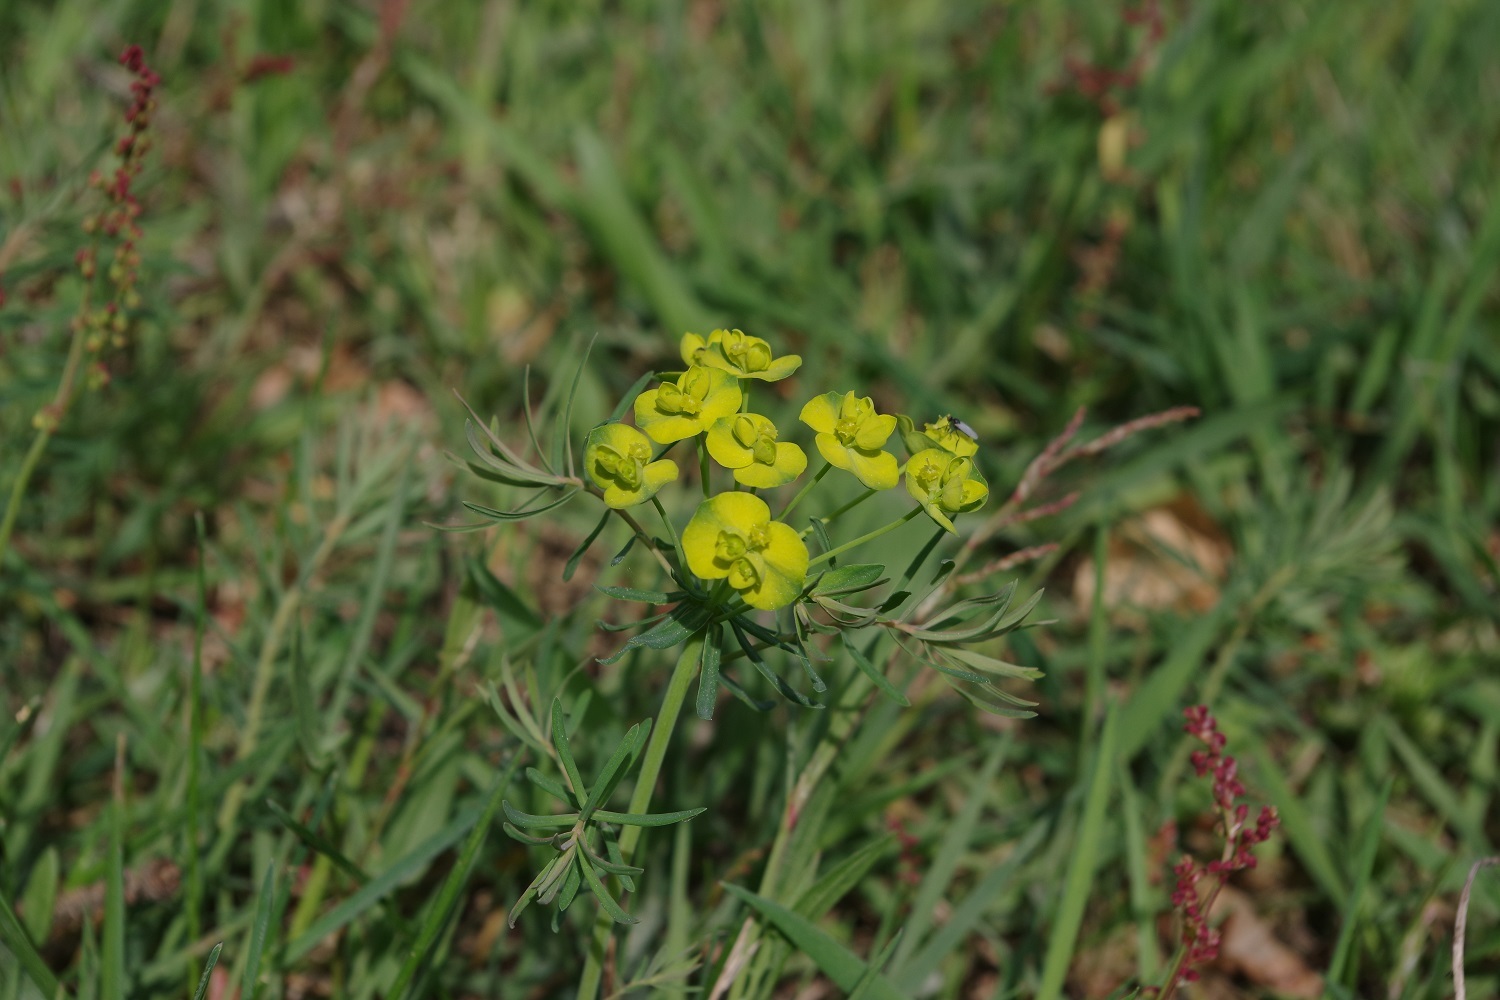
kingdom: Plantae
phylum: Tracheophyta
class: Magnoliopsida
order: Malpighiales
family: Euphorbiaceae
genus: Euphorbia
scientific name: Euphorbia cyparissias
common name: Cypress spurge
